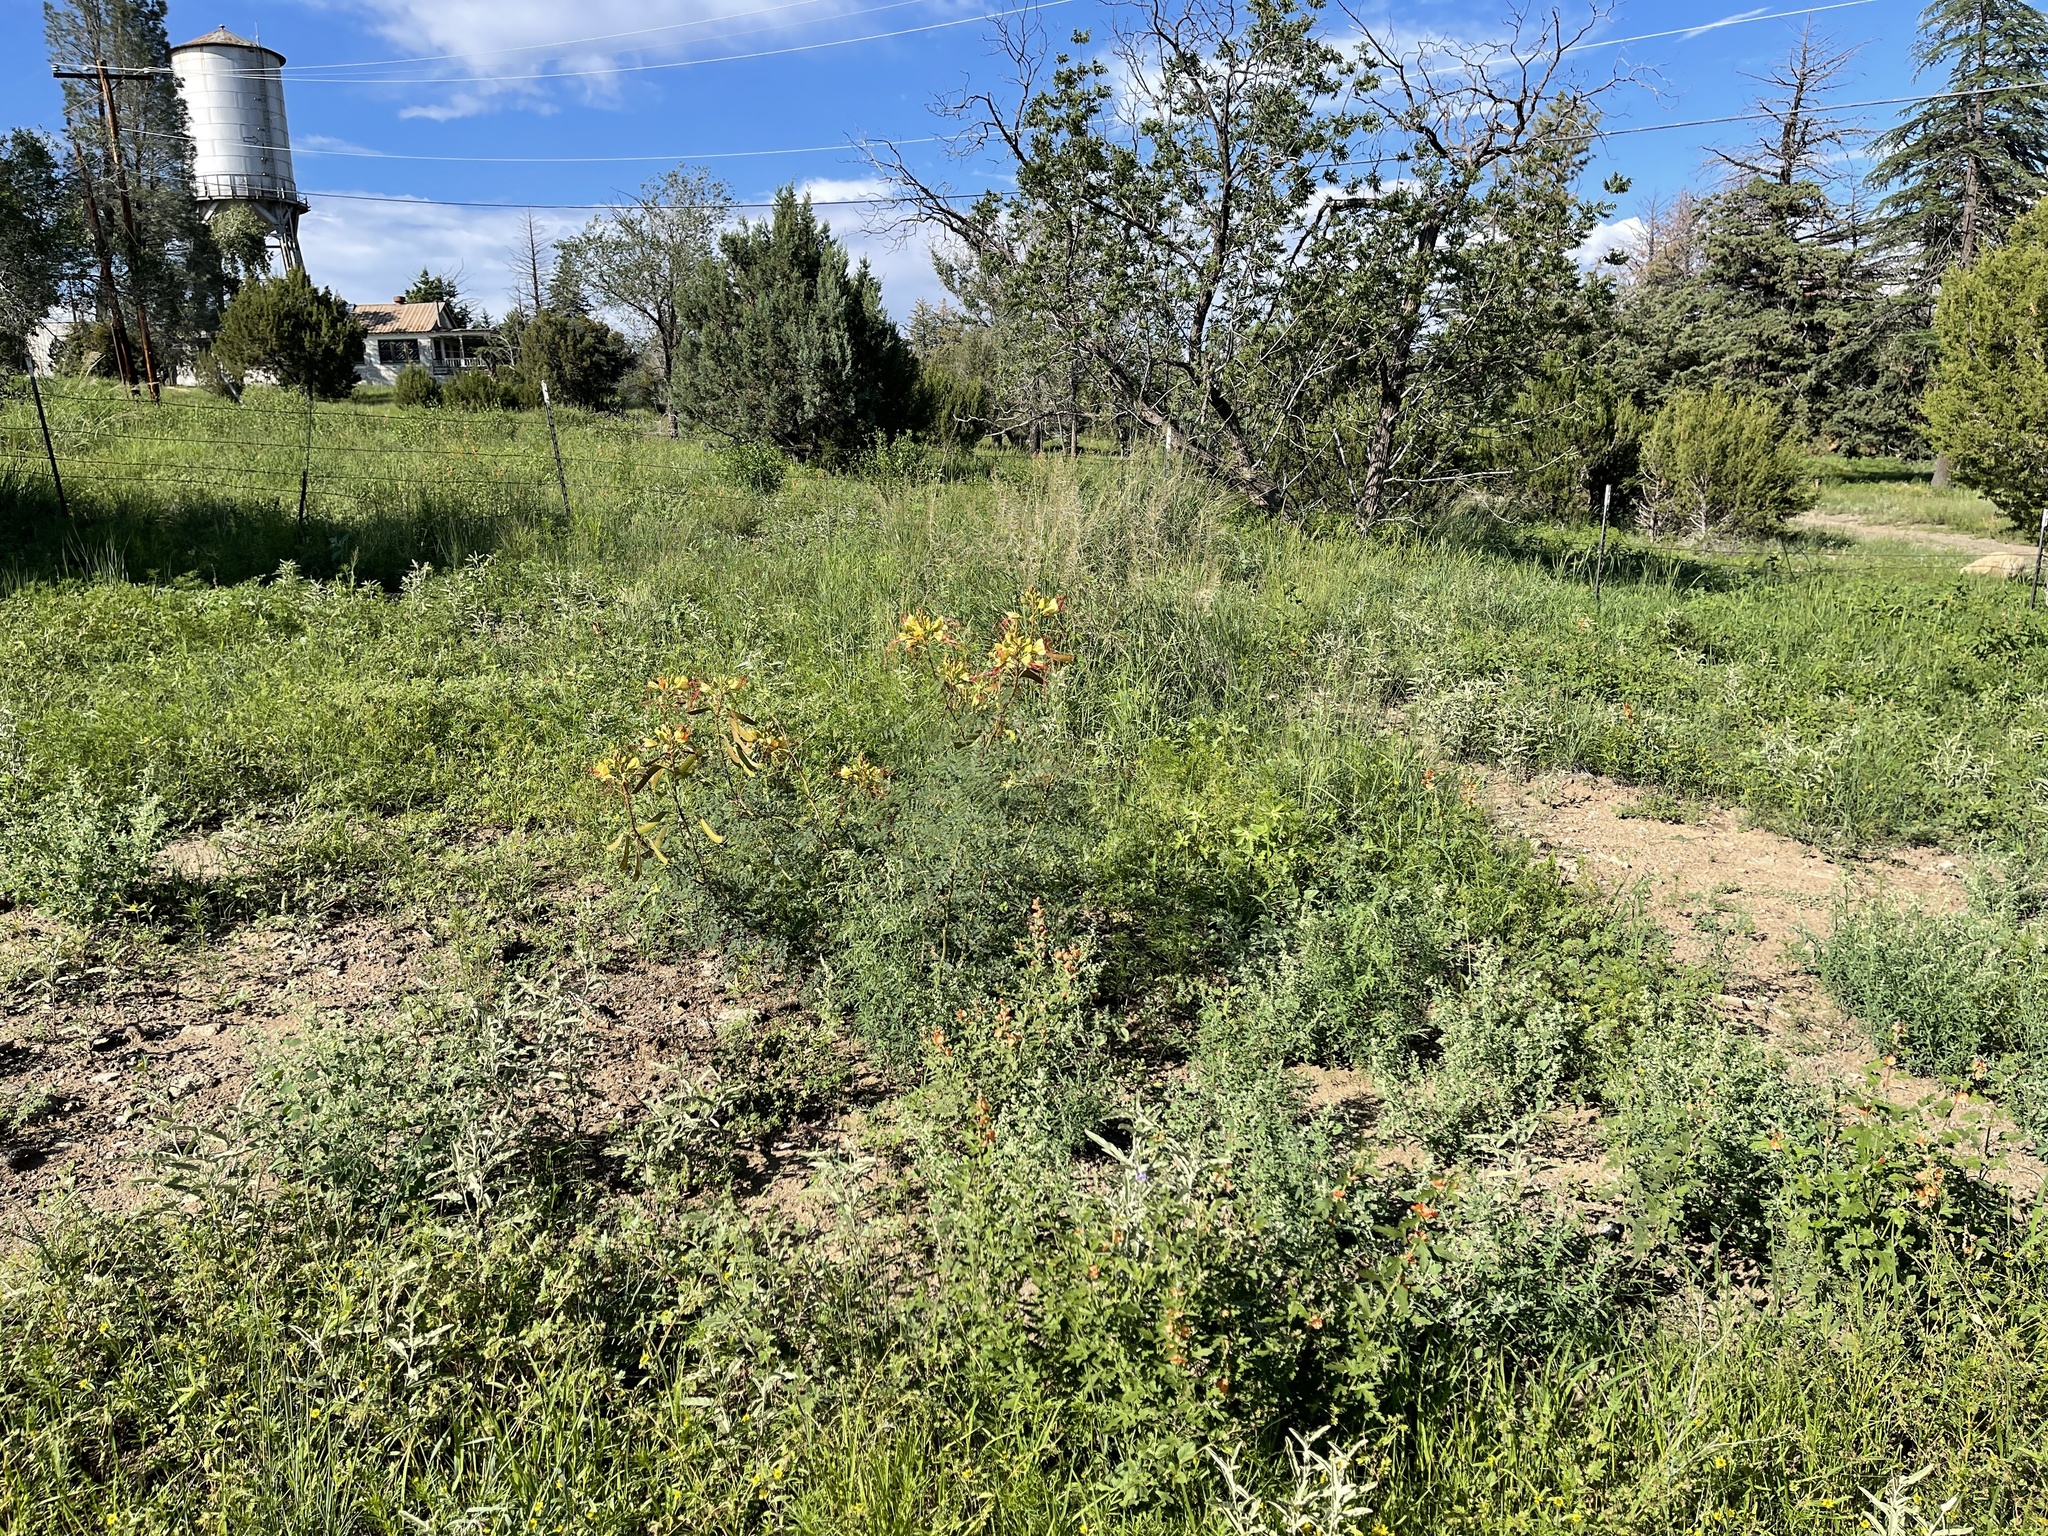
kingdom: Plantae
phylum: Tracheophyta
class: Magnoliopsida
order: Fabales
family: Fabaceae
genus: Erythrostemon
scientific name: Erythrostemon gilliesii
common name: Bird-of-paradise shrub
